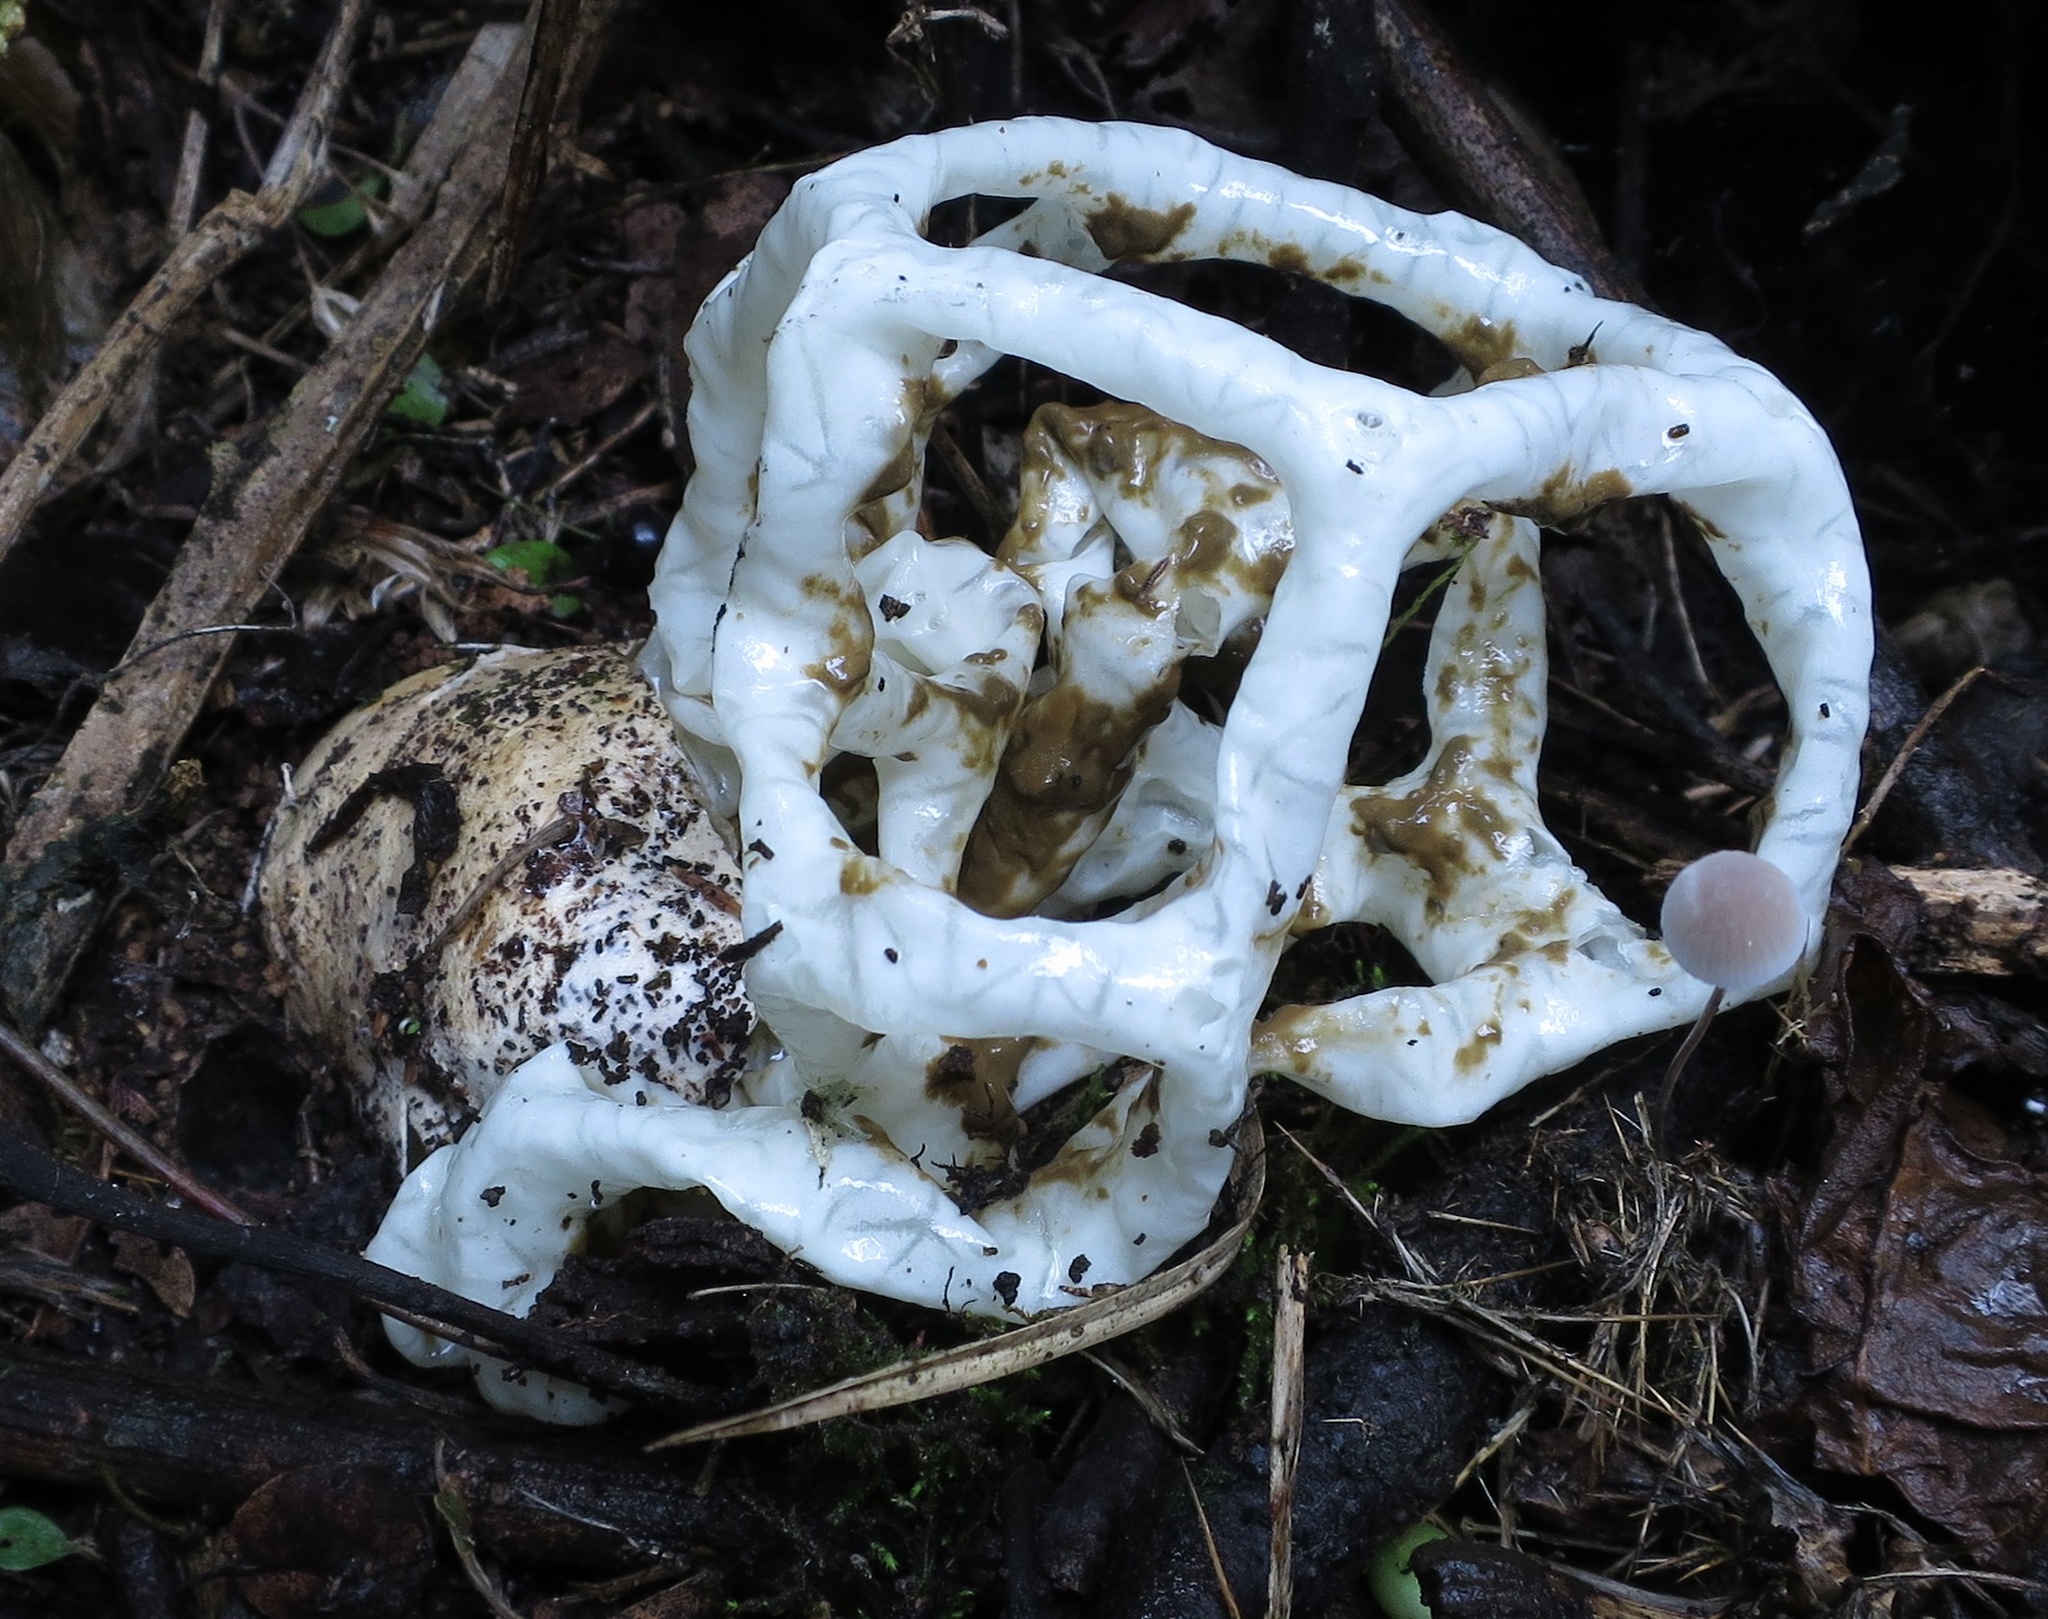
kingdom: Fungi
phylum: Basidiomycota
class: Agaricomycetes
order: Phallales
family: Phallaceae
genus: Ileodictyon
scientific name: Ileodictyon cibarium
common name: Basket fungus
